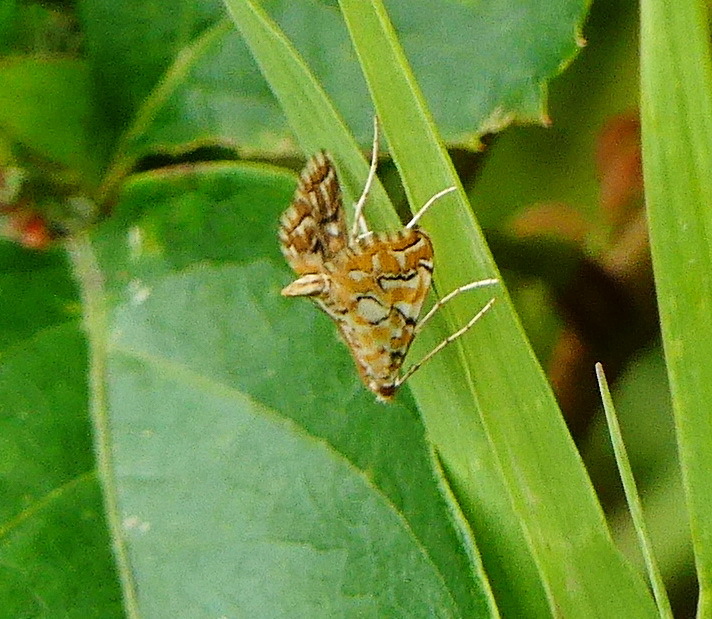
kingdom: Animalia
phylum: Arthropoda
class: Insecta
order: Lepidoptera
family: Crambidae
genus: Elophila
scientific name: Elophila icciusalis
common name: Pondside pyralid moth
